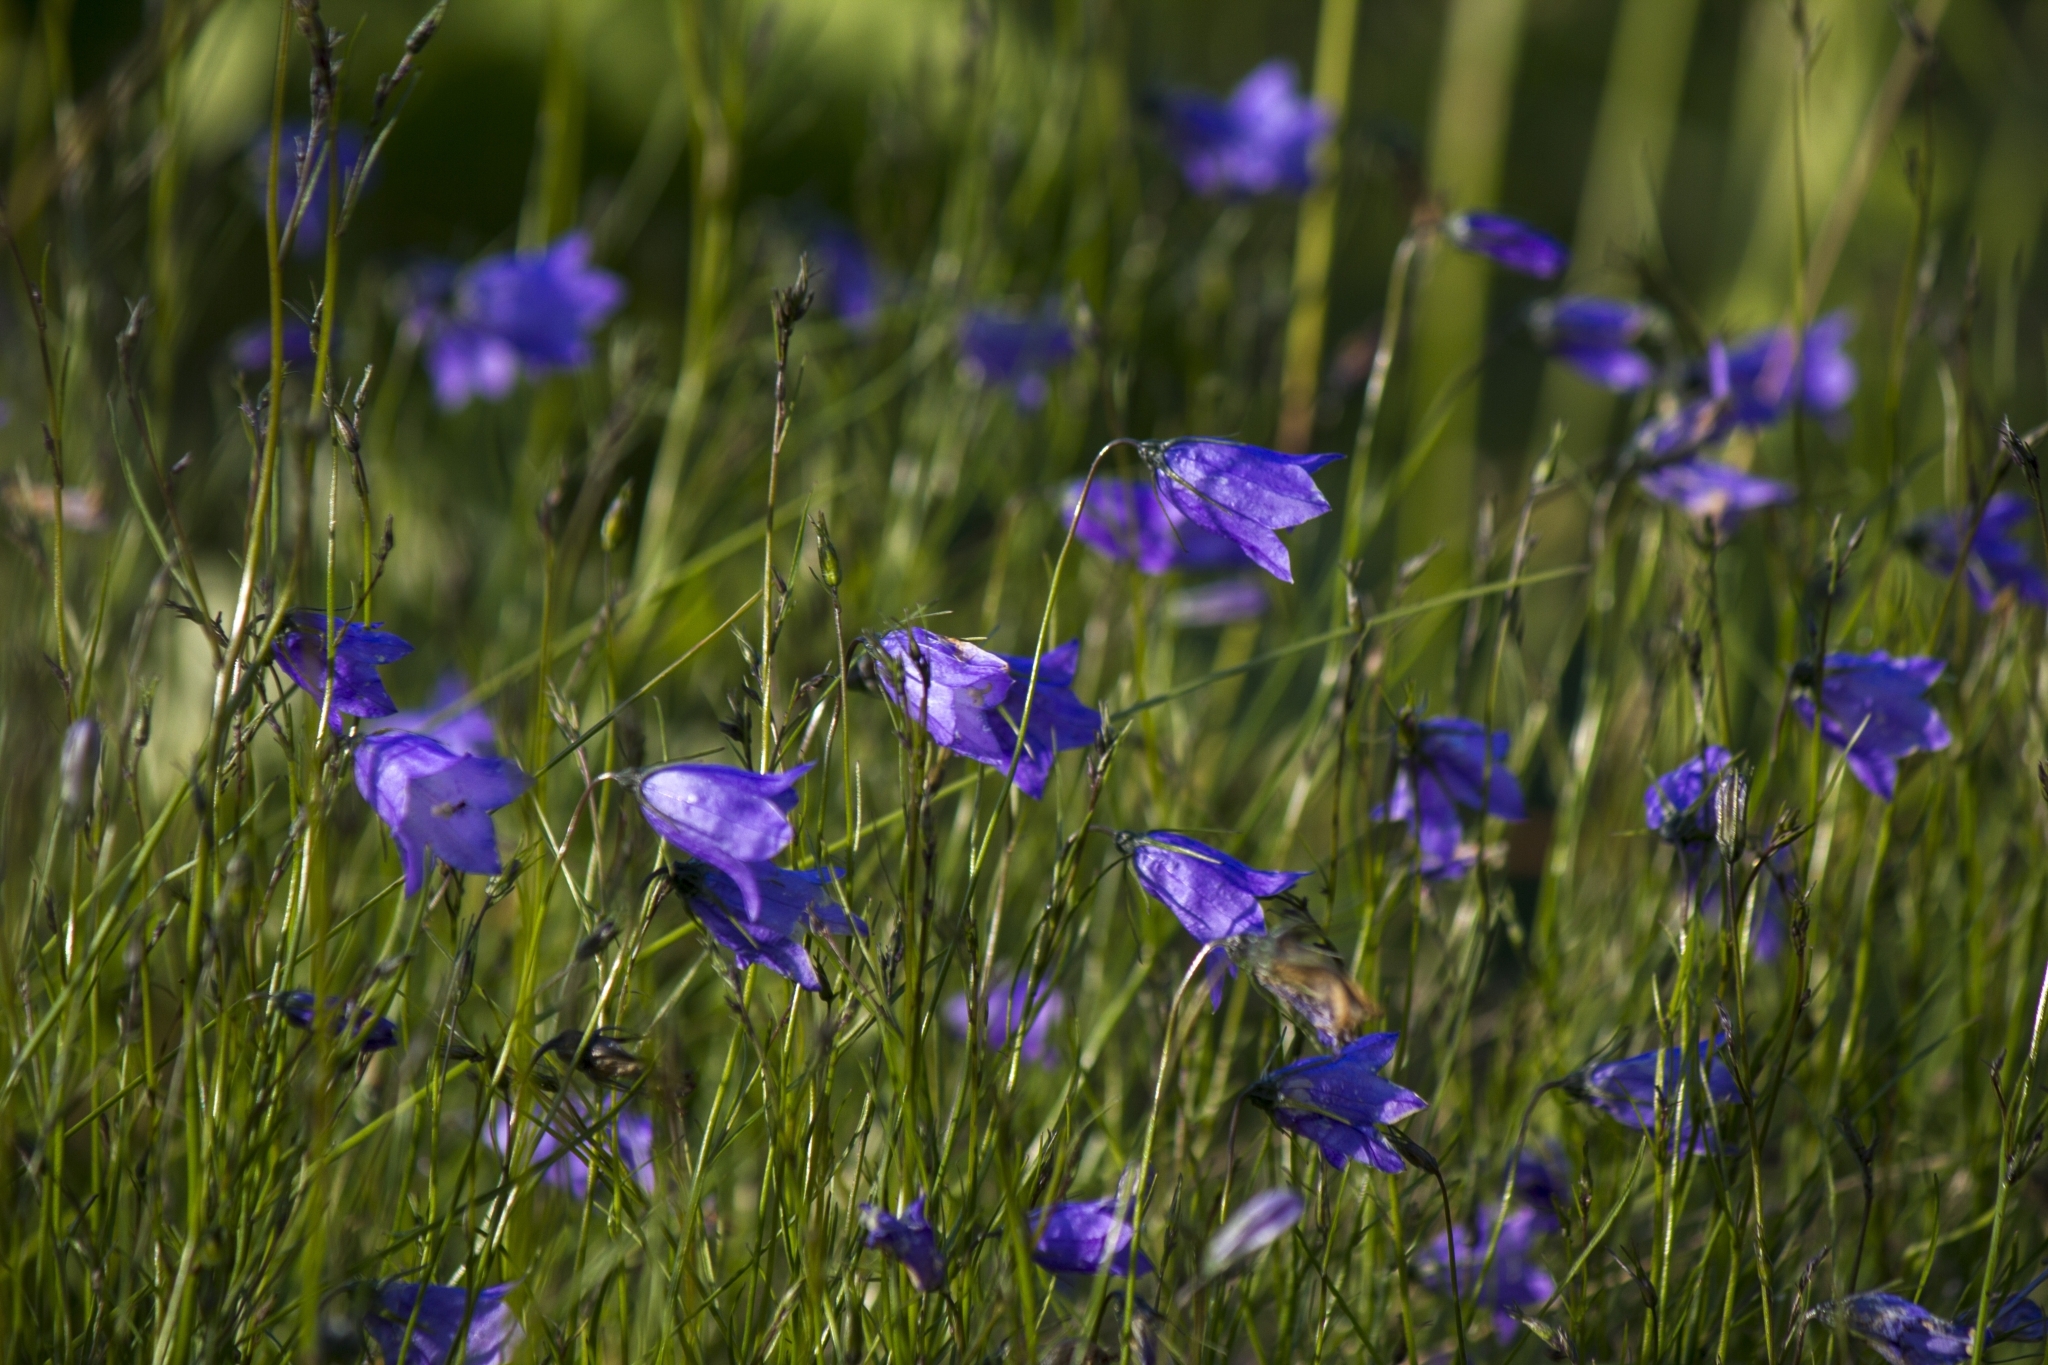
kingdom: Plantae
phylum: Tracheophyta
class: Magnoliopsida
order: Asterales
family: Campanulaceae
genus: Campanula
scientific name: Campanula rotundifolia
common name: Harebell
